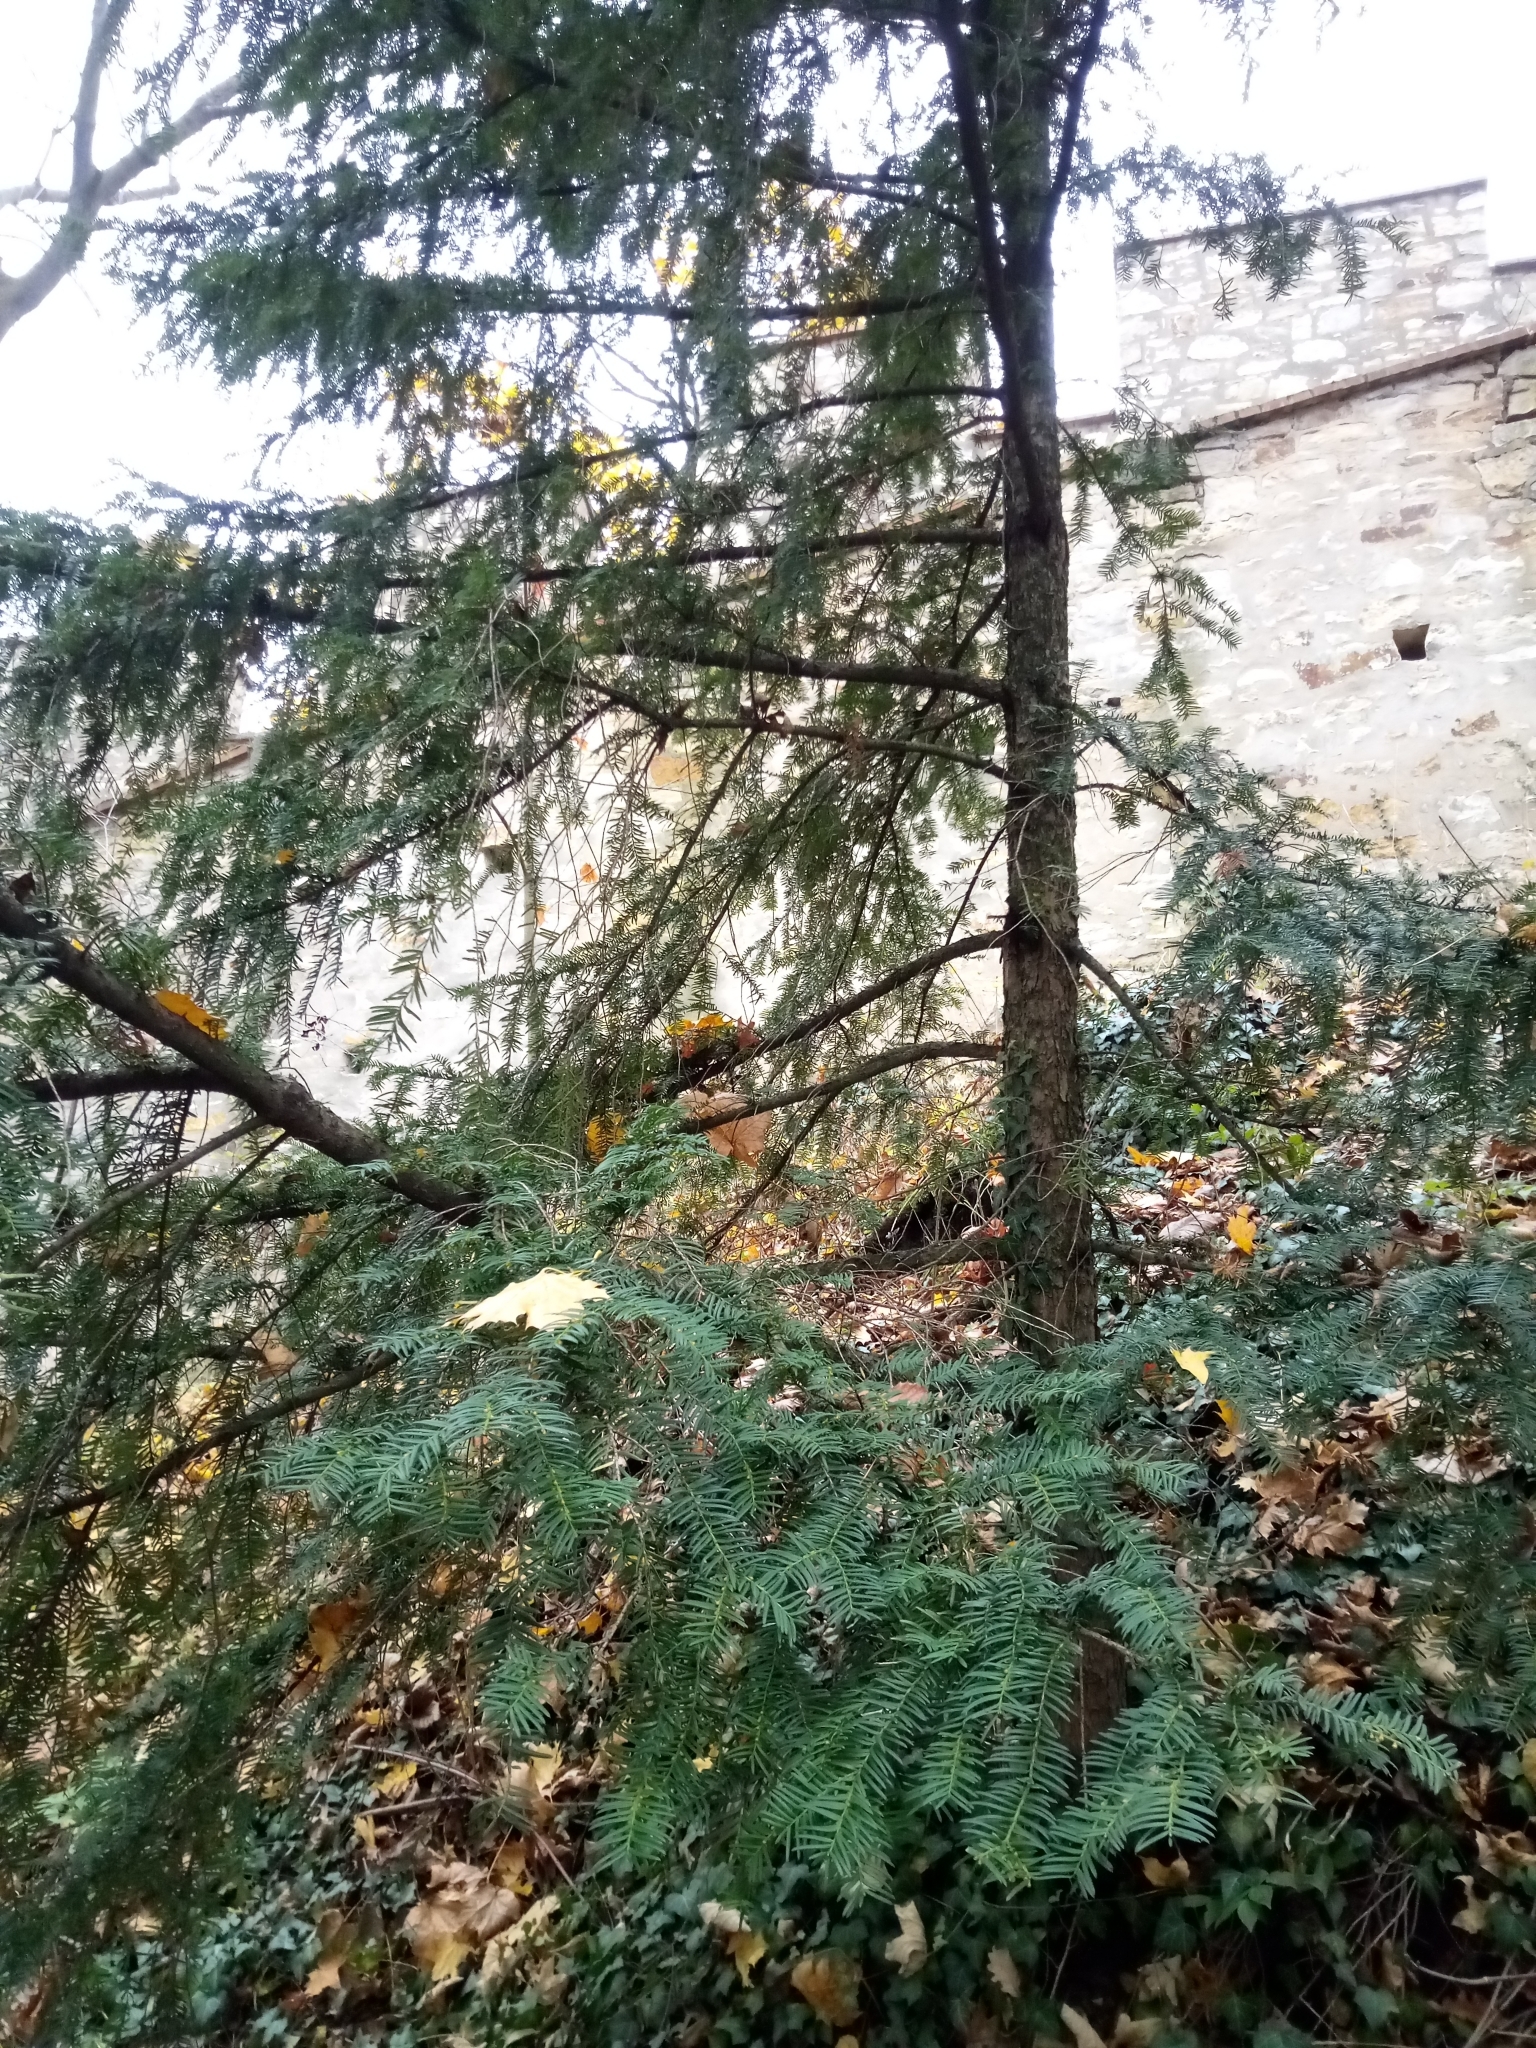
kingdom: Plantae
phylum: Tracheophyta
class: Pinopsida
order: Pinales
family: Taxaceae
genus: Taxus
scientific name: Taxus baccata
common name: Yew
